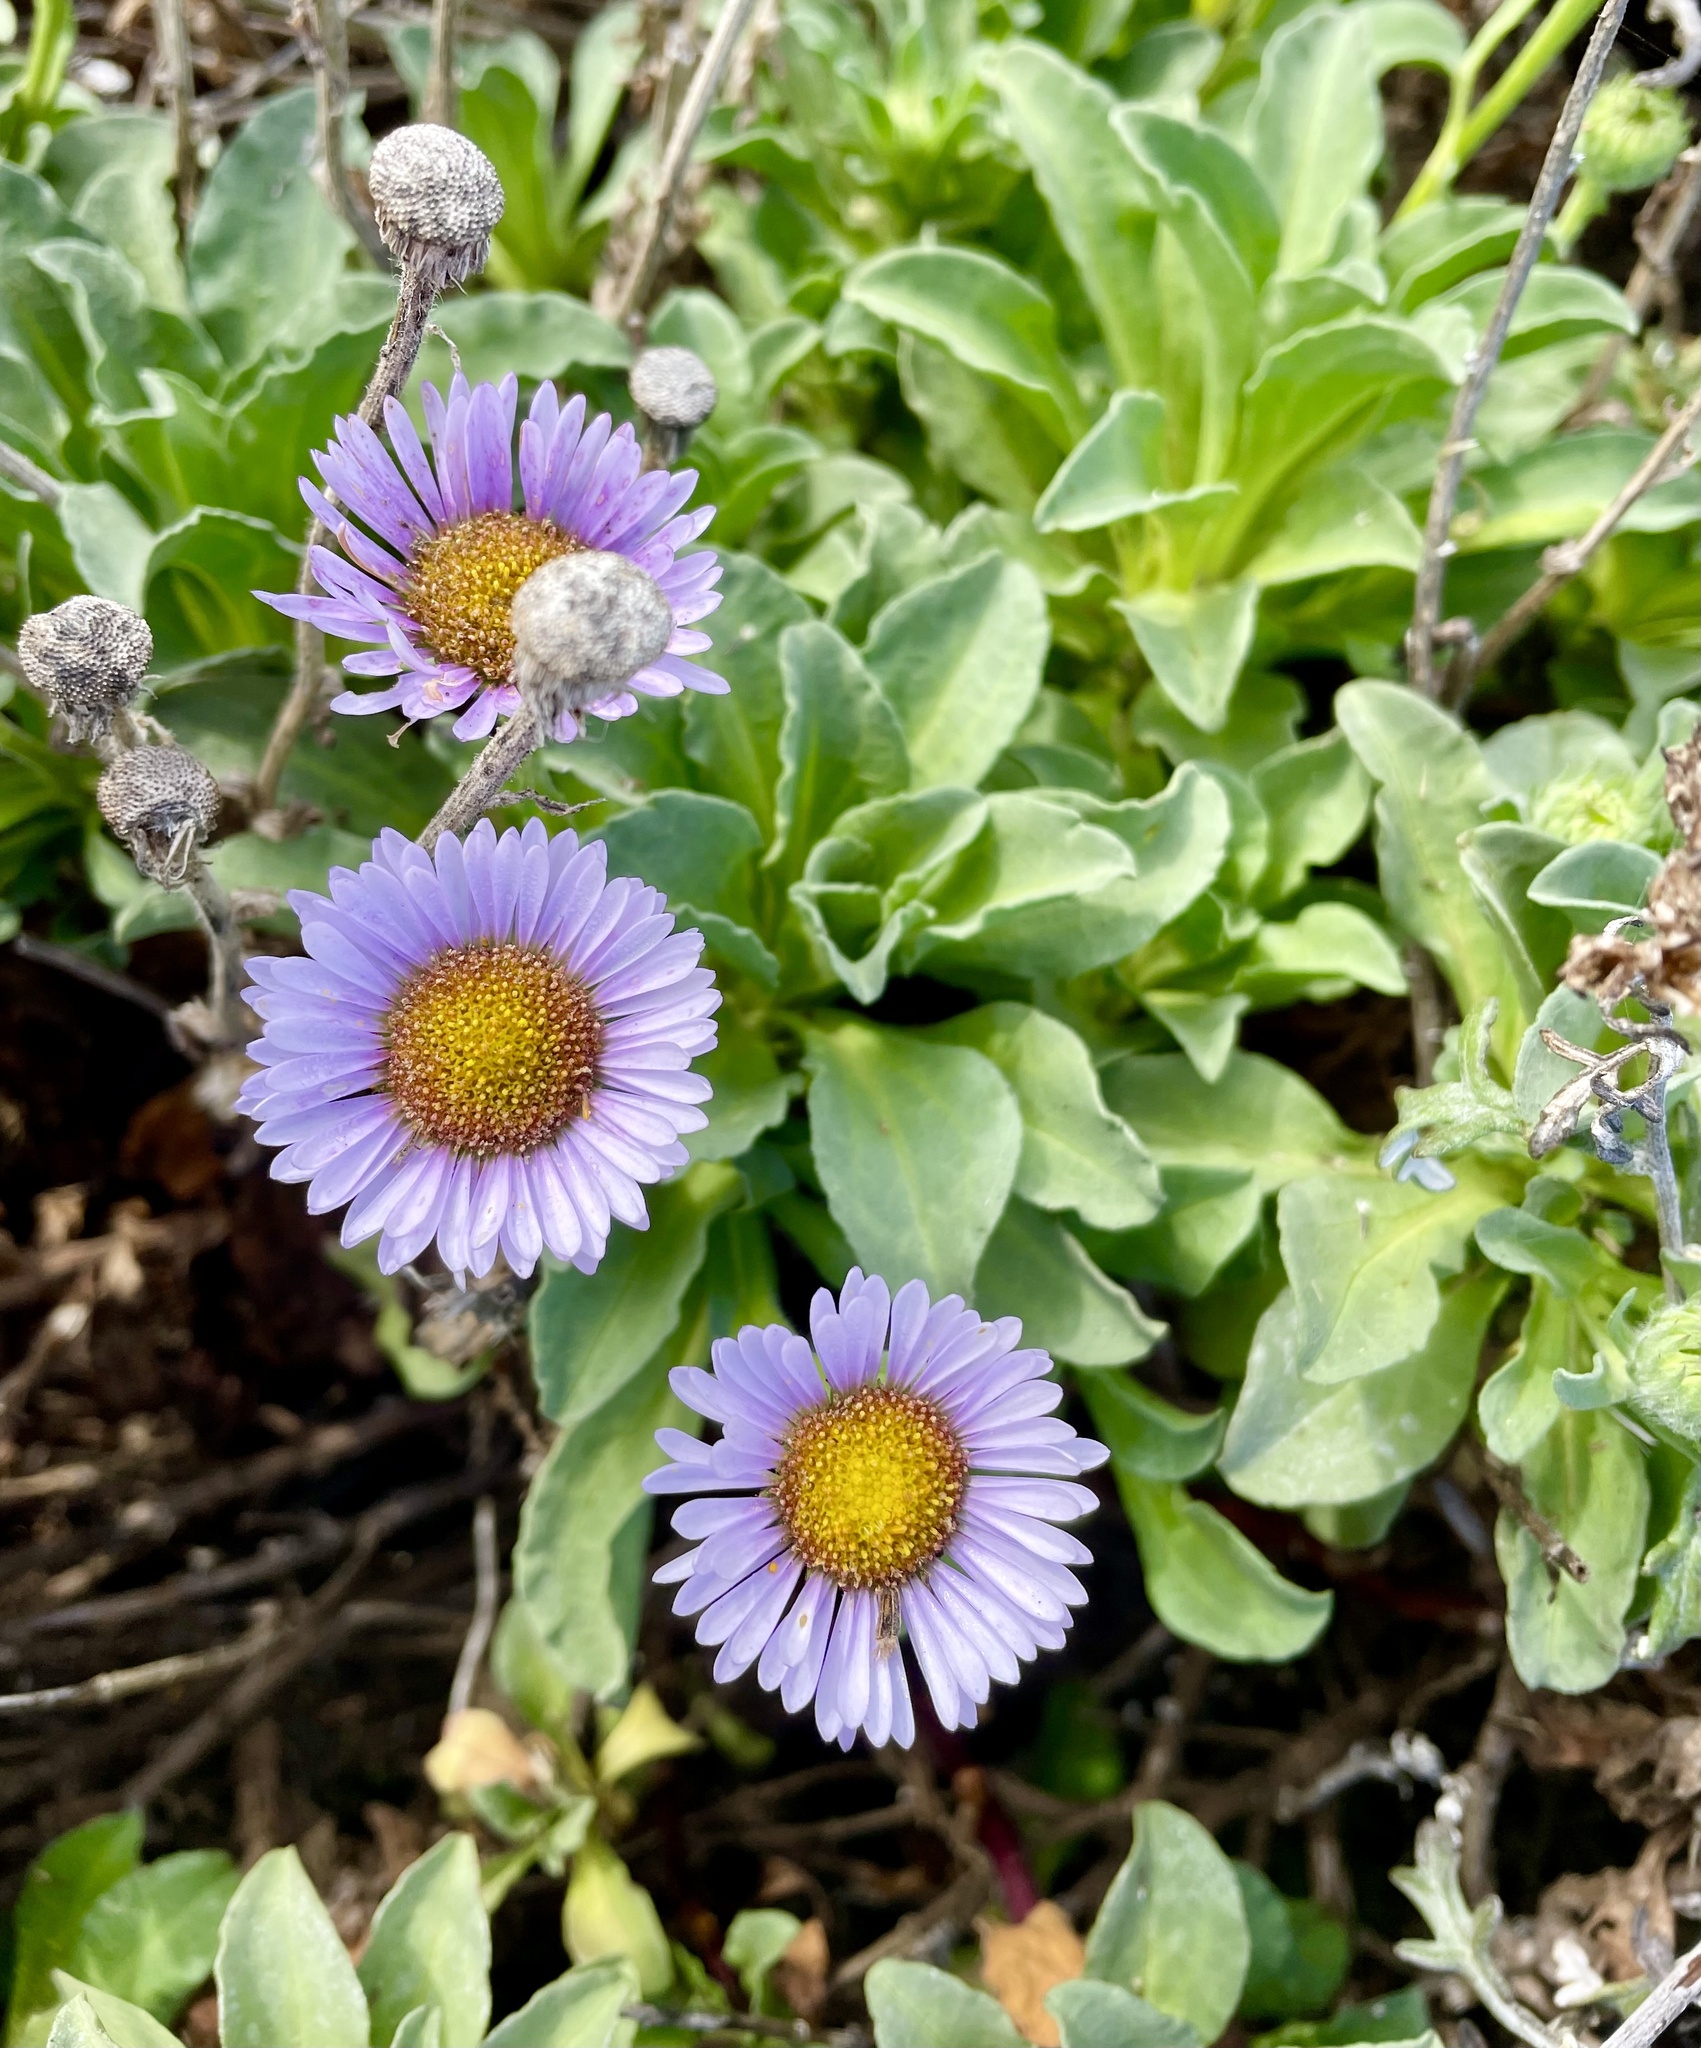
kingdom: Plantae
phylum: Tracheophyta
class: Magnoliopsida
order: Asterales
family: Asteraceae
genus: Erigeron
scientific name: Erigeron glaucus
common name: Seaside daisy
